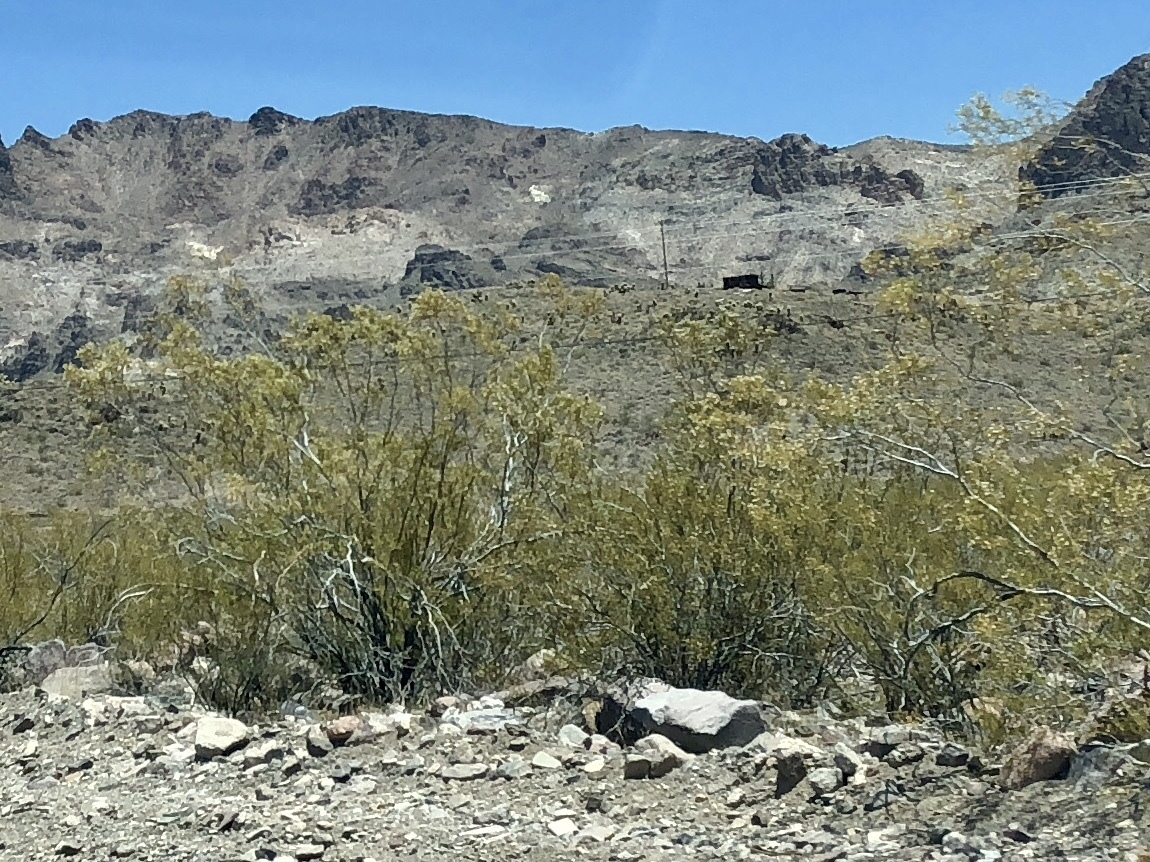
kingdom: Plantae
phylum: Tracheophyta
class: Magnoliopsida
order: Zygophyllales
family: Zygophyllaceae
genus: Larrea
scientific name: Larrea tridentata
